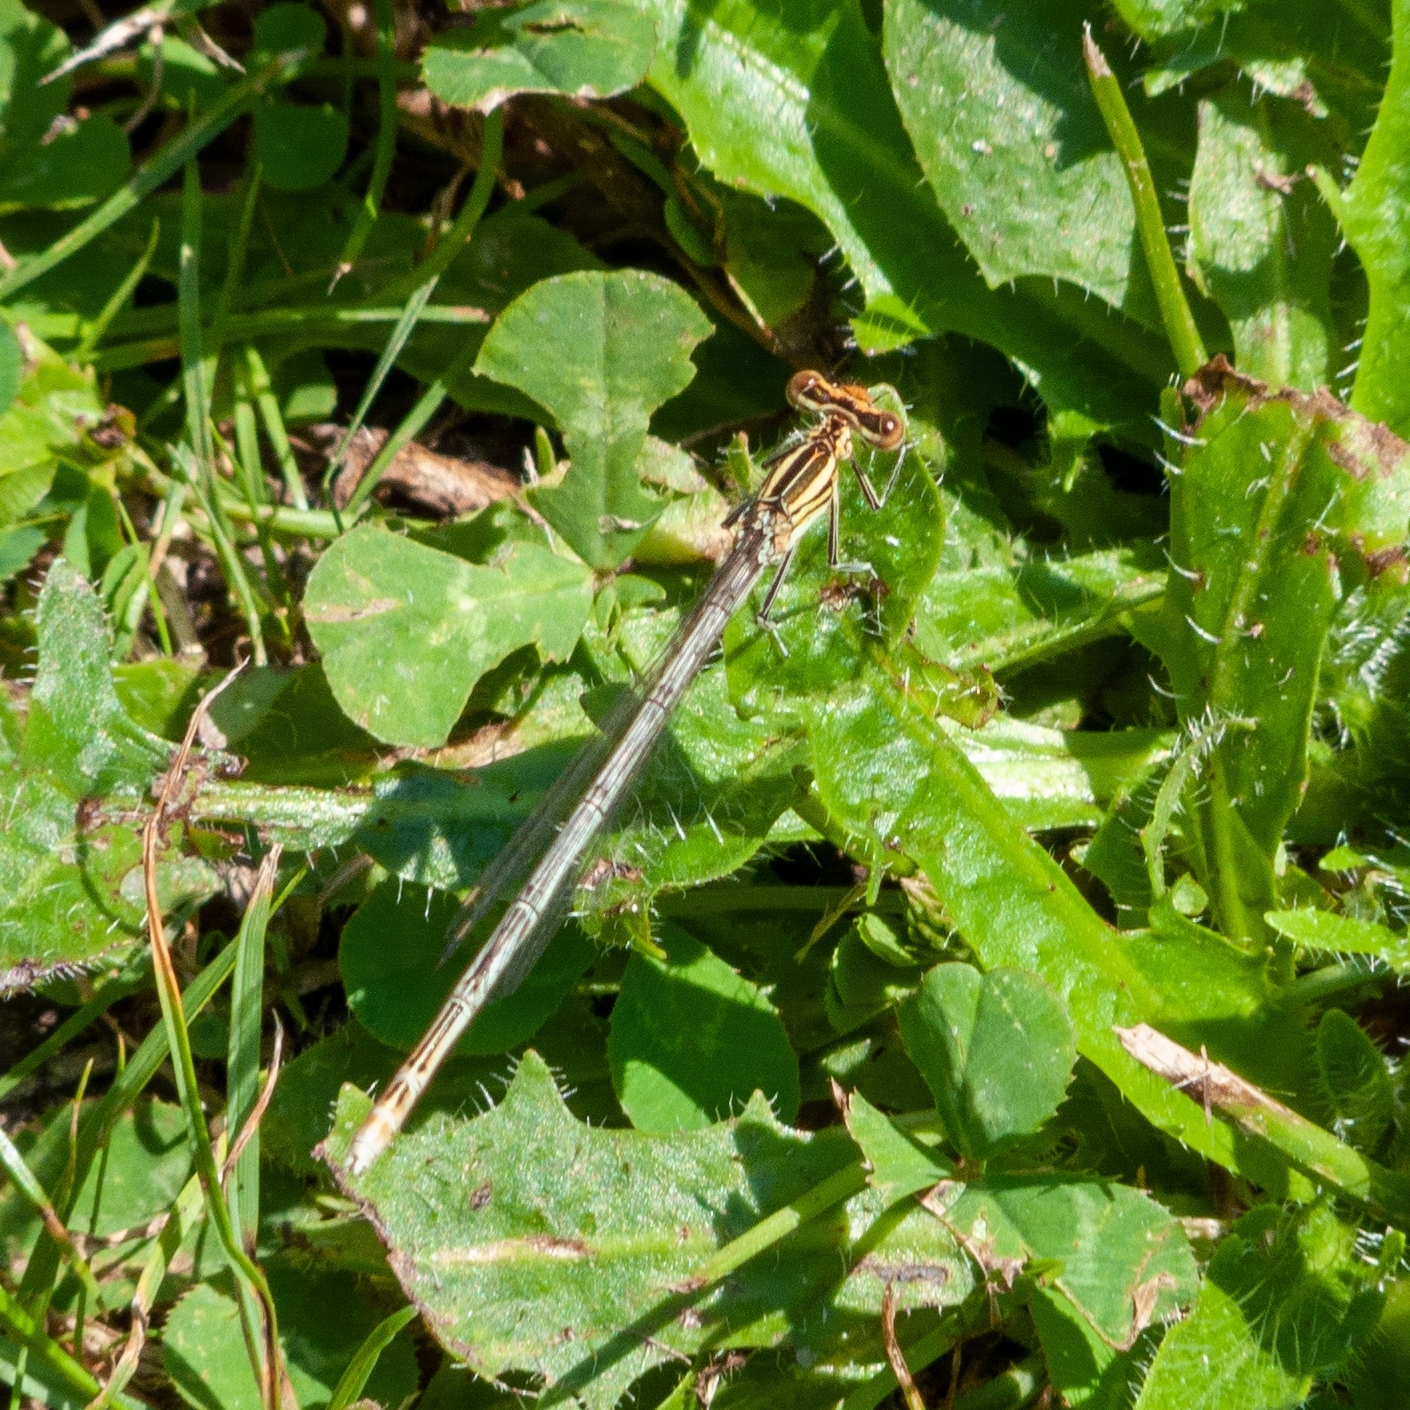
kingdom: Animalia
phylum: Arthropoda
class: Insecta
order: Odonata
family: Platycnemididae
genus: Platycnemis
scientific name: Platycnemis pennipes
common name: White-legged damselfly
